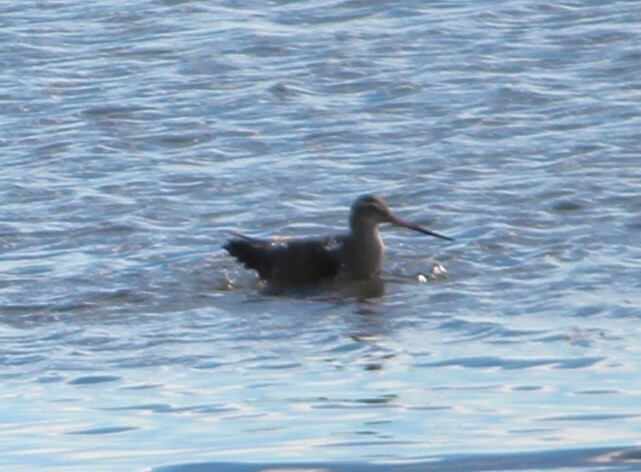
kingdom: Animalia
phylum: Chordata
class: Aves
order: Charadriiformes
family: Scolopacidae
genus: Limosa
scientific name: Limosa lapponica
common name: Bar-tailed godwit
